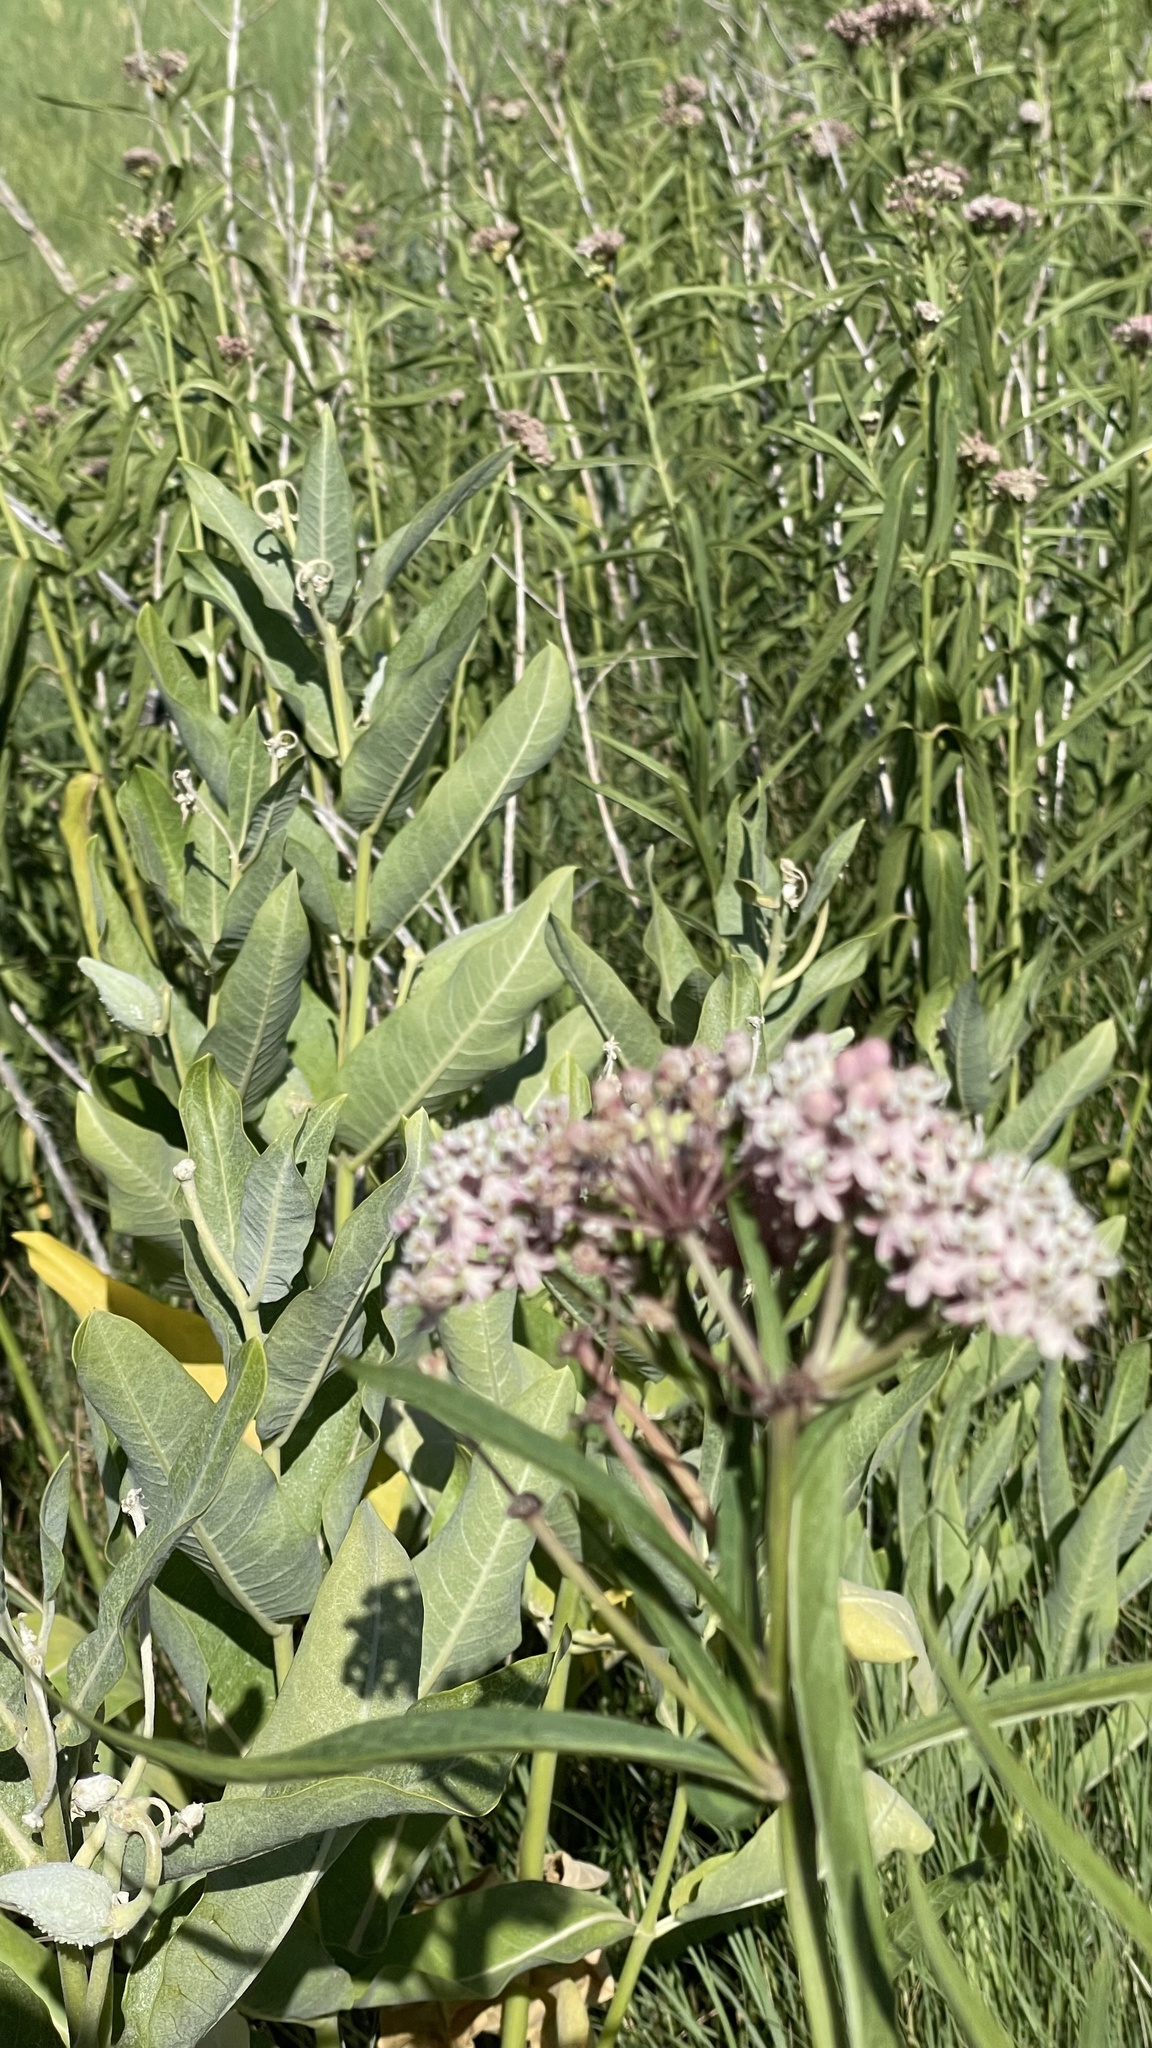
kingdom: Plantae
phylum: Tracheophyta
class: Magnoliopsida
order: Gentianales
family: Apocynaceae
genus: Asclepias
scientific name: Asclepias speciosa
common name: Showy milkweed
